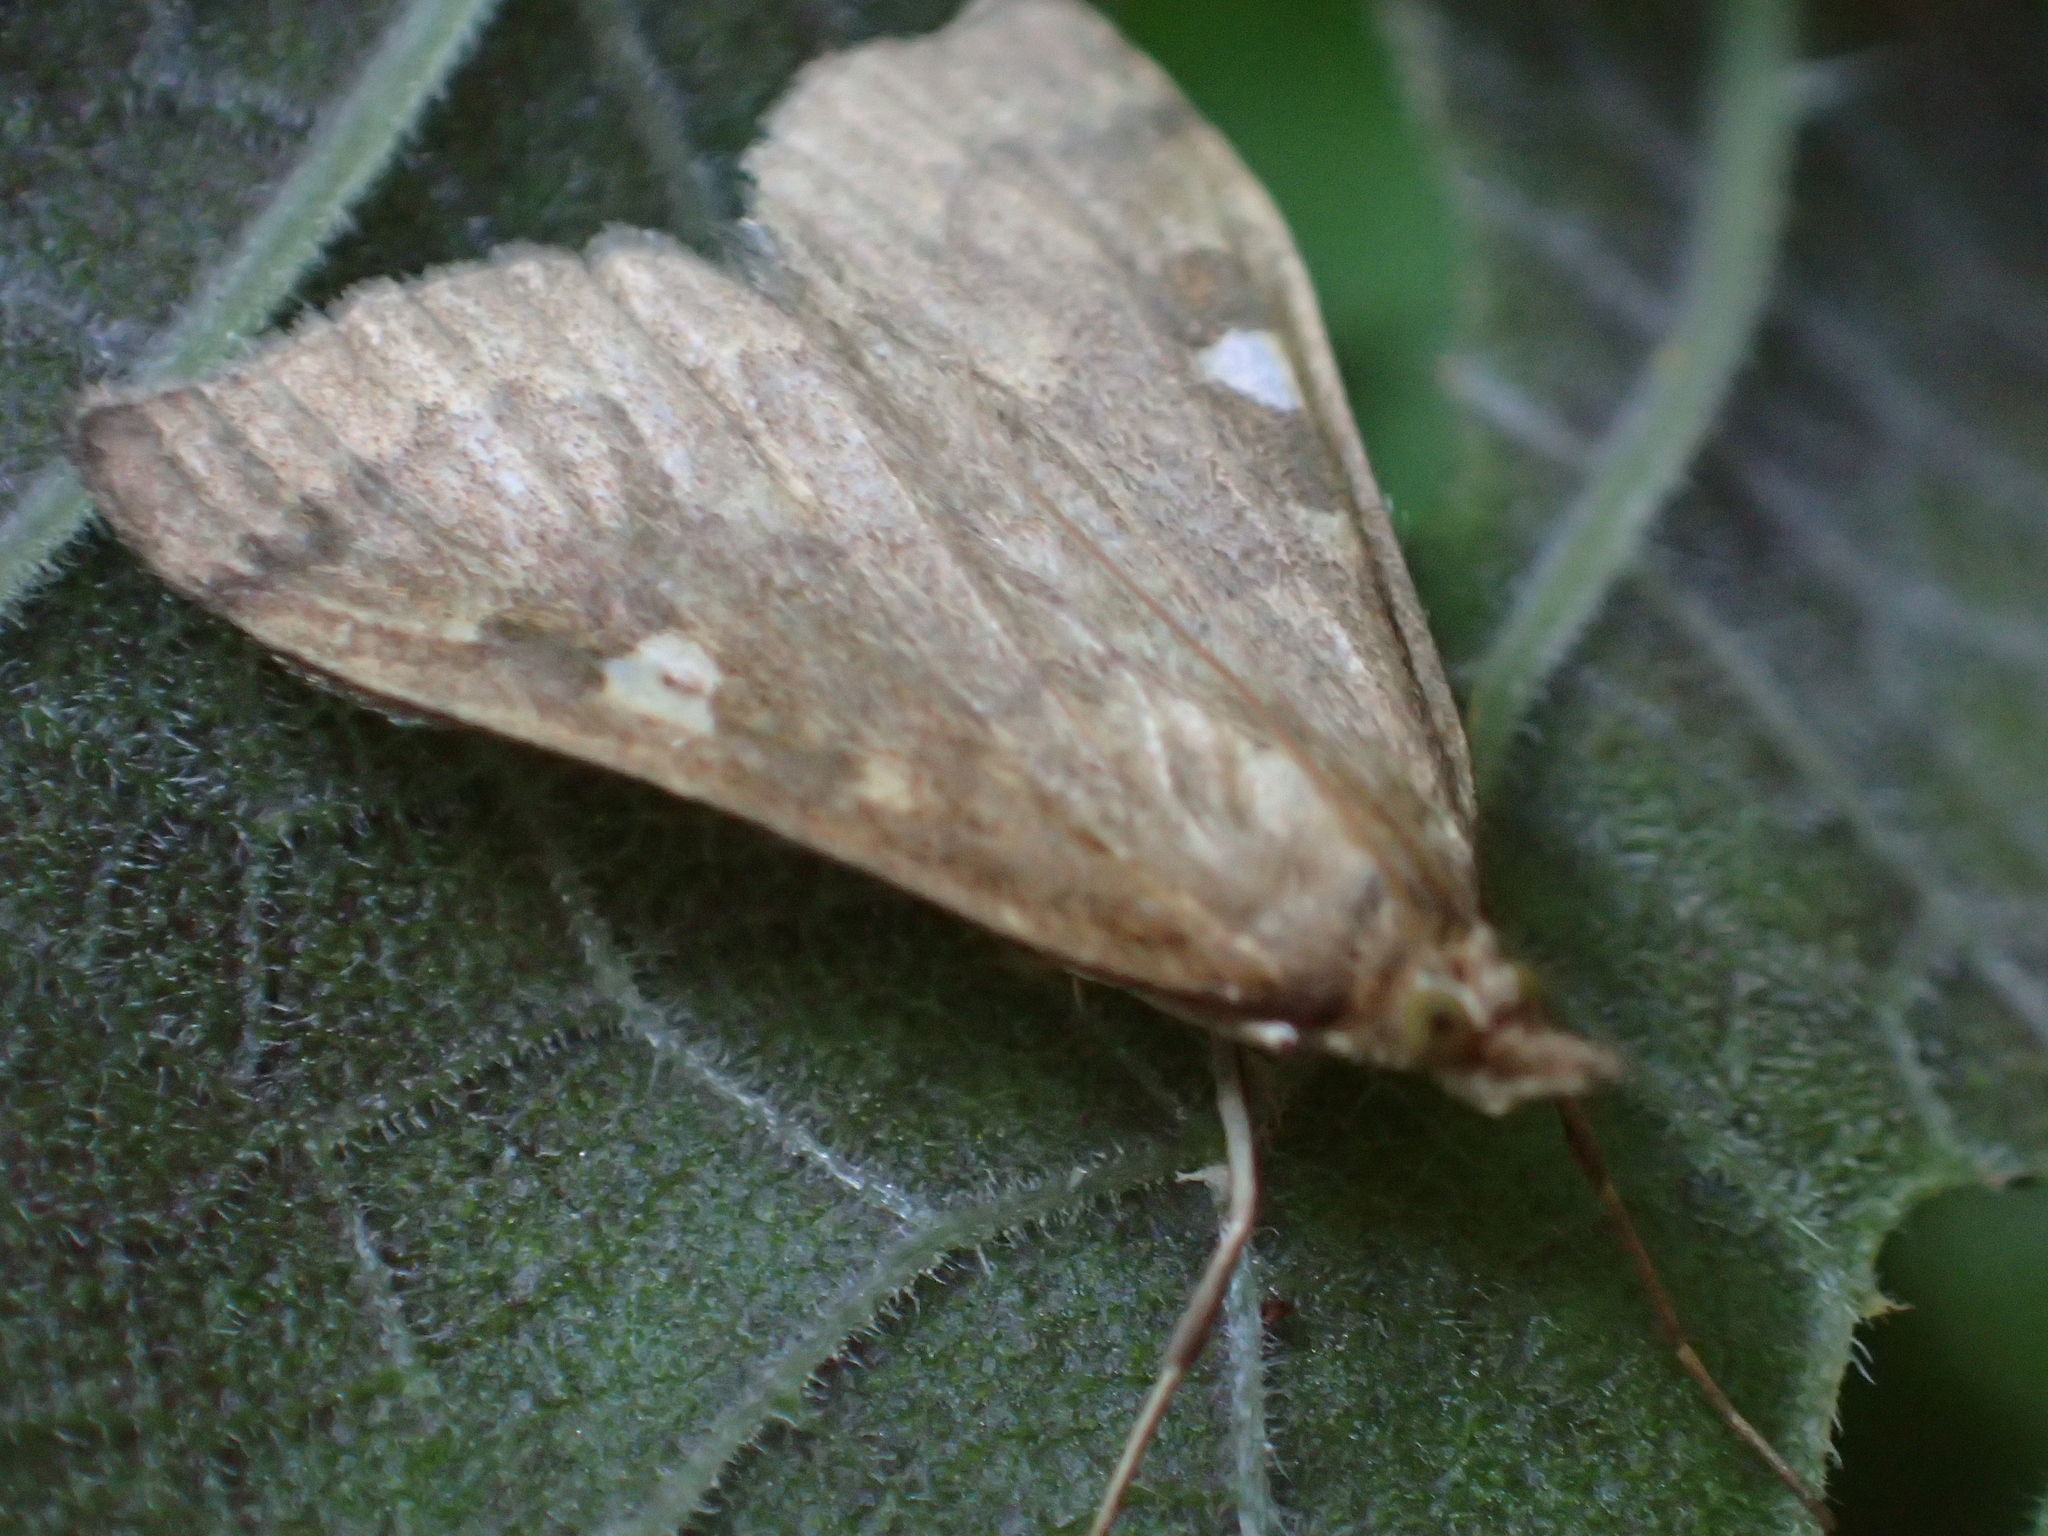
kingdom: Animalia
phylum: Arthropoda
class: Insecta
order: Lepidoptera
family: Crambidae
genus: Udea
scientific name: Udea Mnesictena marmarina
